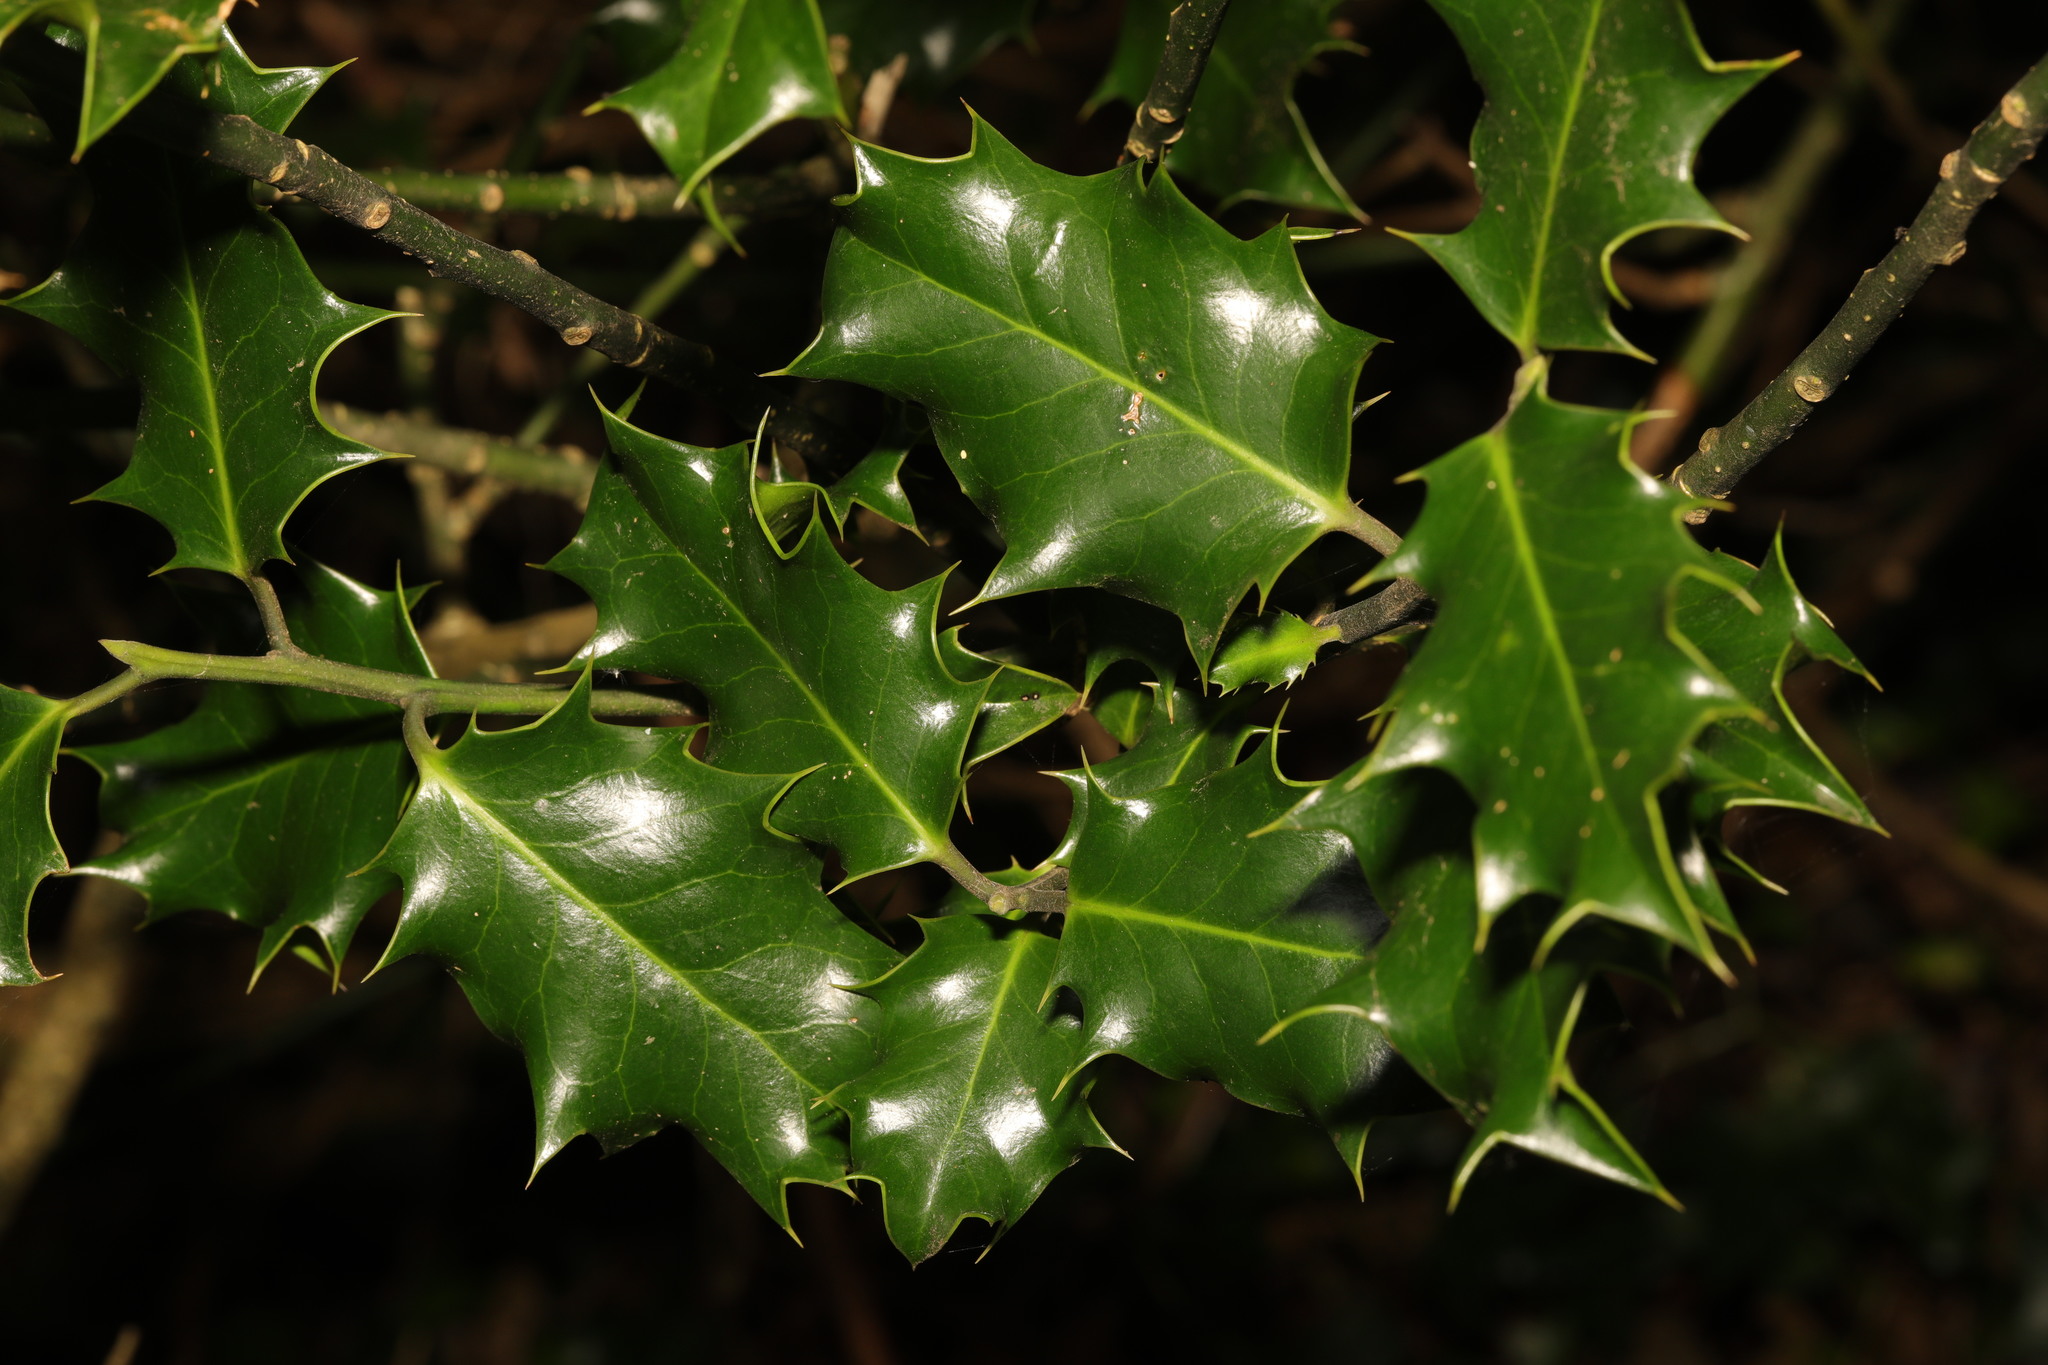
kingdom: Plantae
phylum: Tracheophyta
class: Magnoliopsida
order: Aquifoliales
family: Aquifoliaceae
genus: Ilex
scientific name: Ilex aquifolium
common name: English holly
